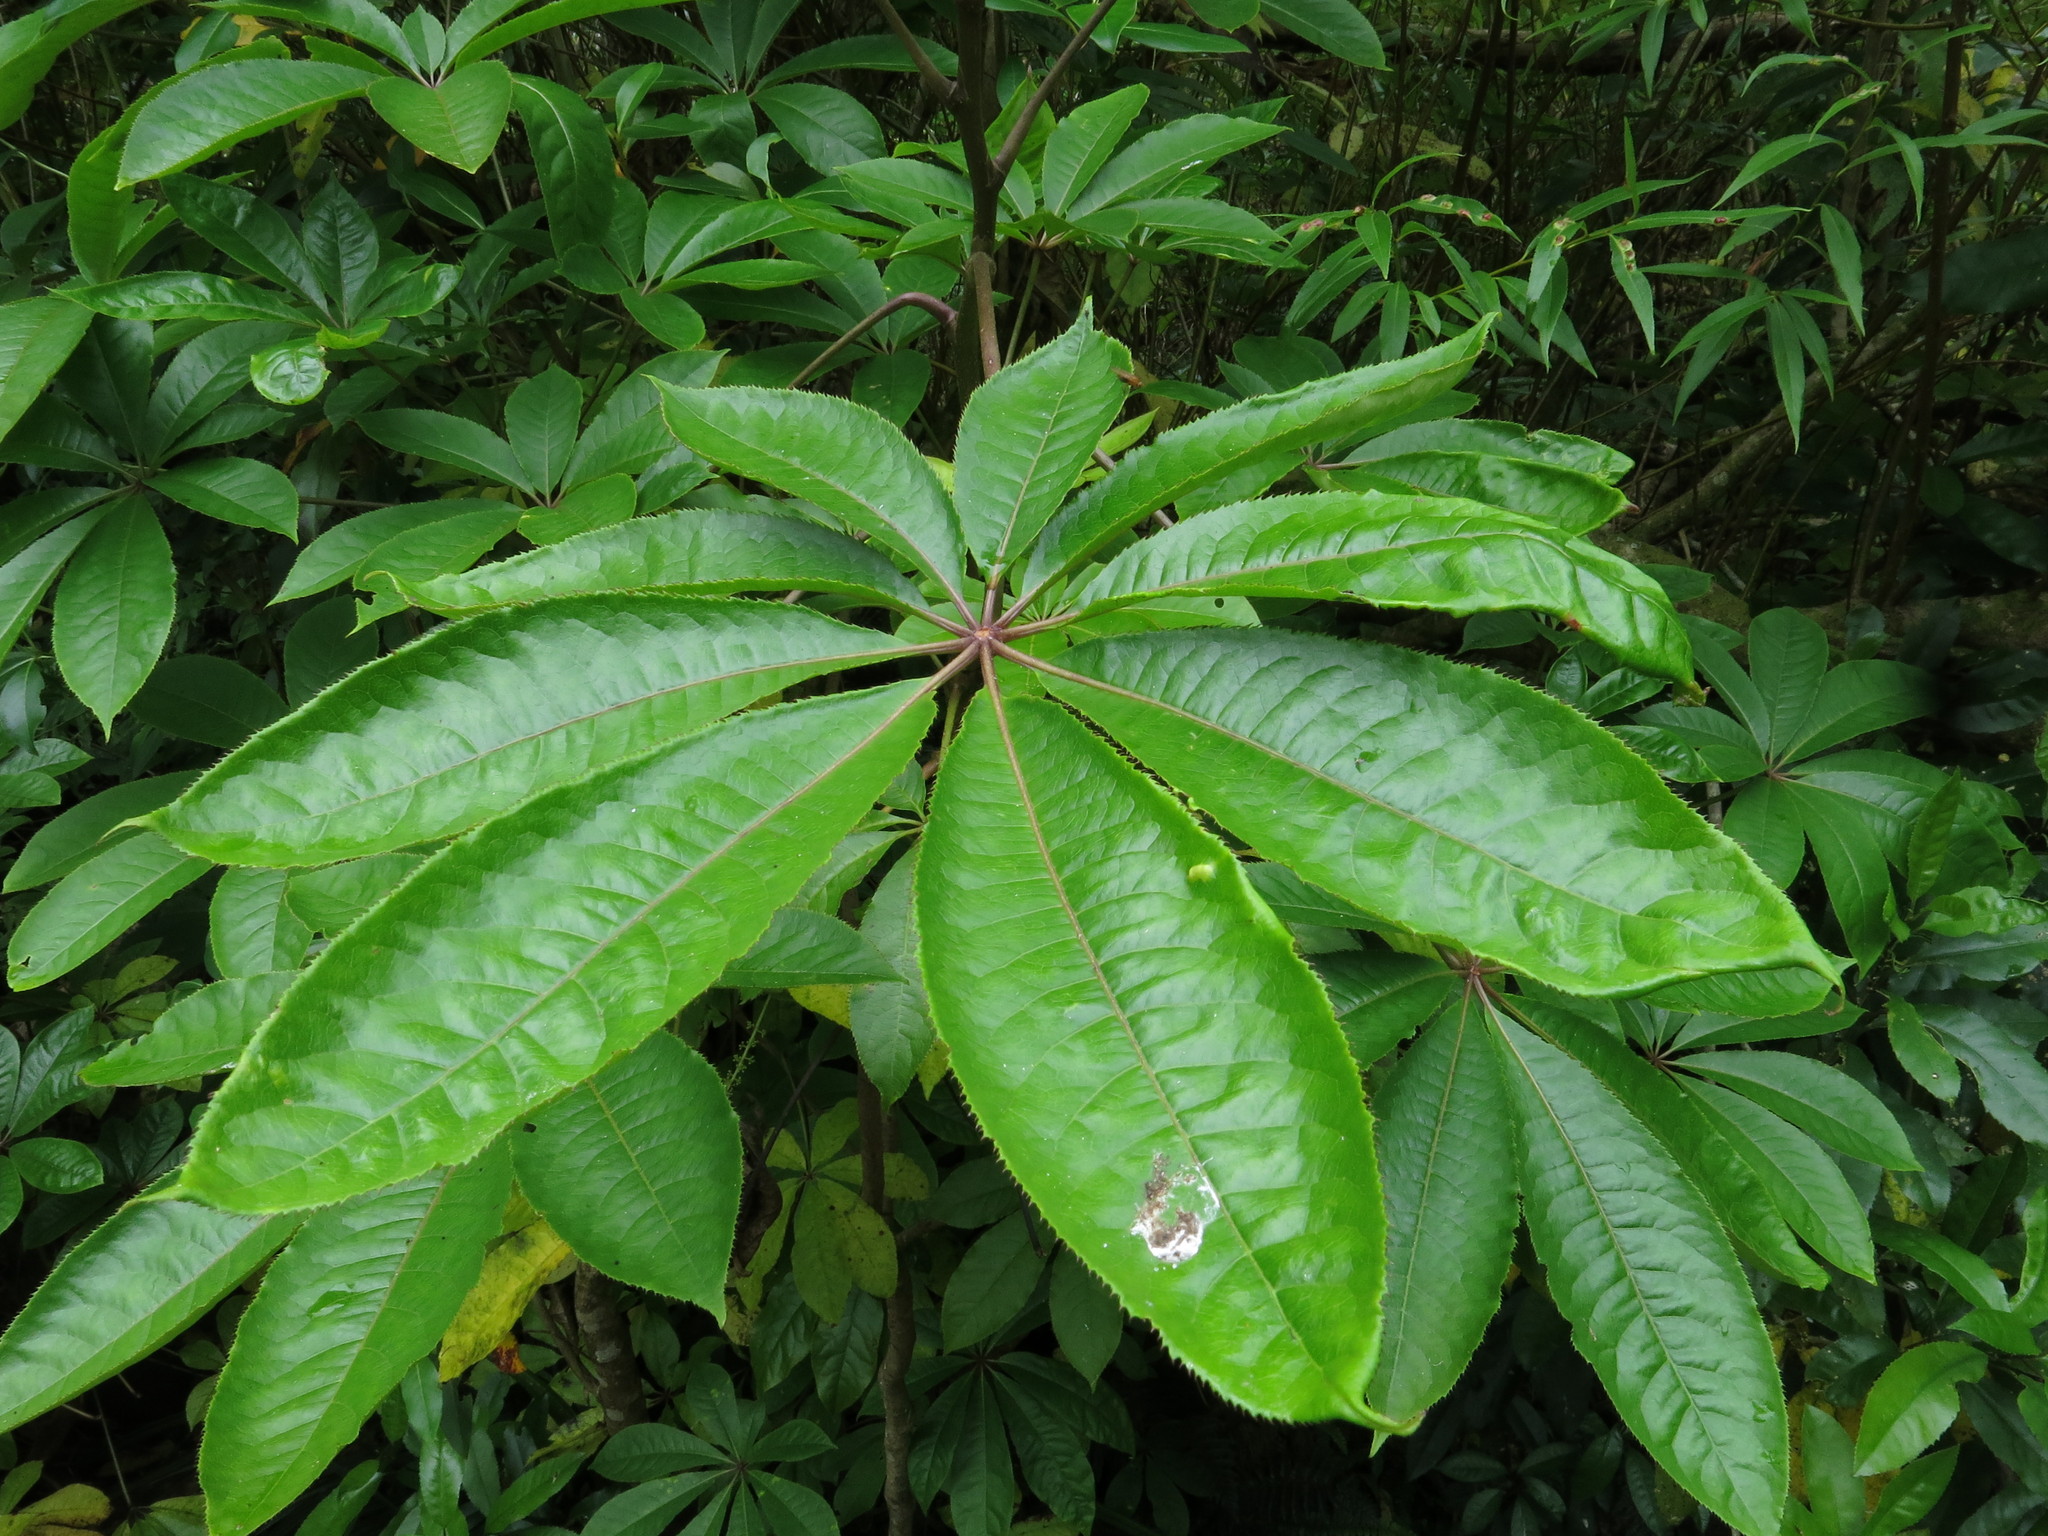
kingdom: Plantae
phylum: Tracheophyta
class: Magnoliopsida
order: Apiales
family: Araliaceae
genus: Schefflera
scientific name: Schefflera digitata
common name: Pate
